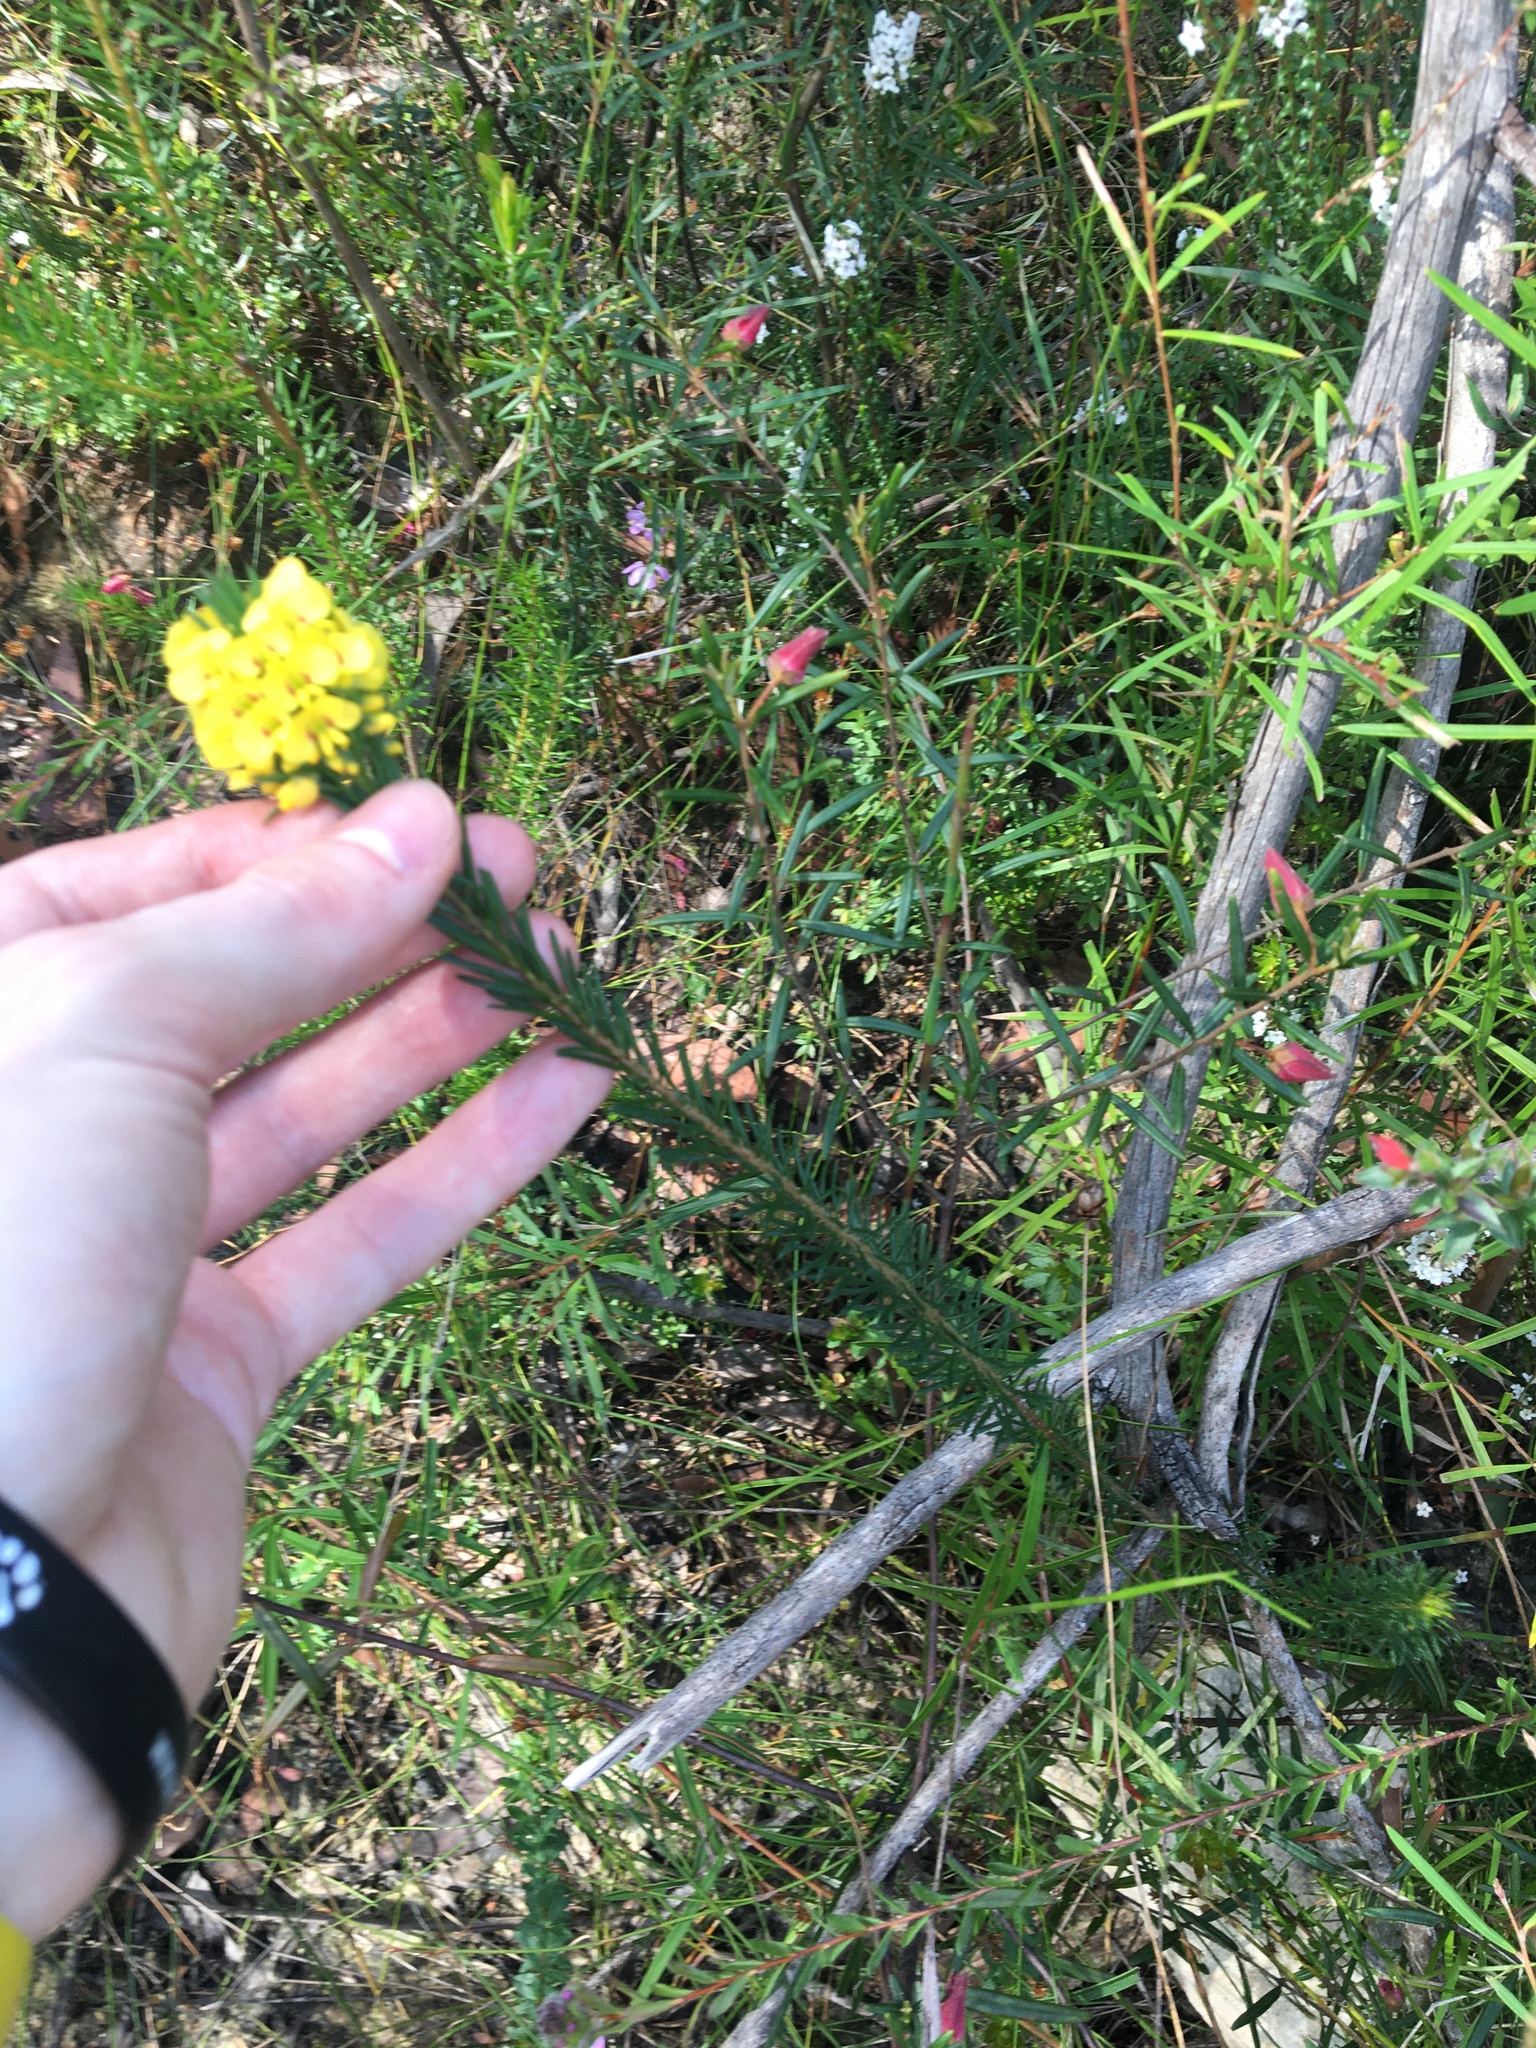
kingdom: Plantae
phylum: Tracheophyta
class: Magnoliopsida
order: Fabales
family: Fabaceae
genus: Dillwynia
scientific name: Dillwynia floribunda
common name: Eggs-and-bacon
